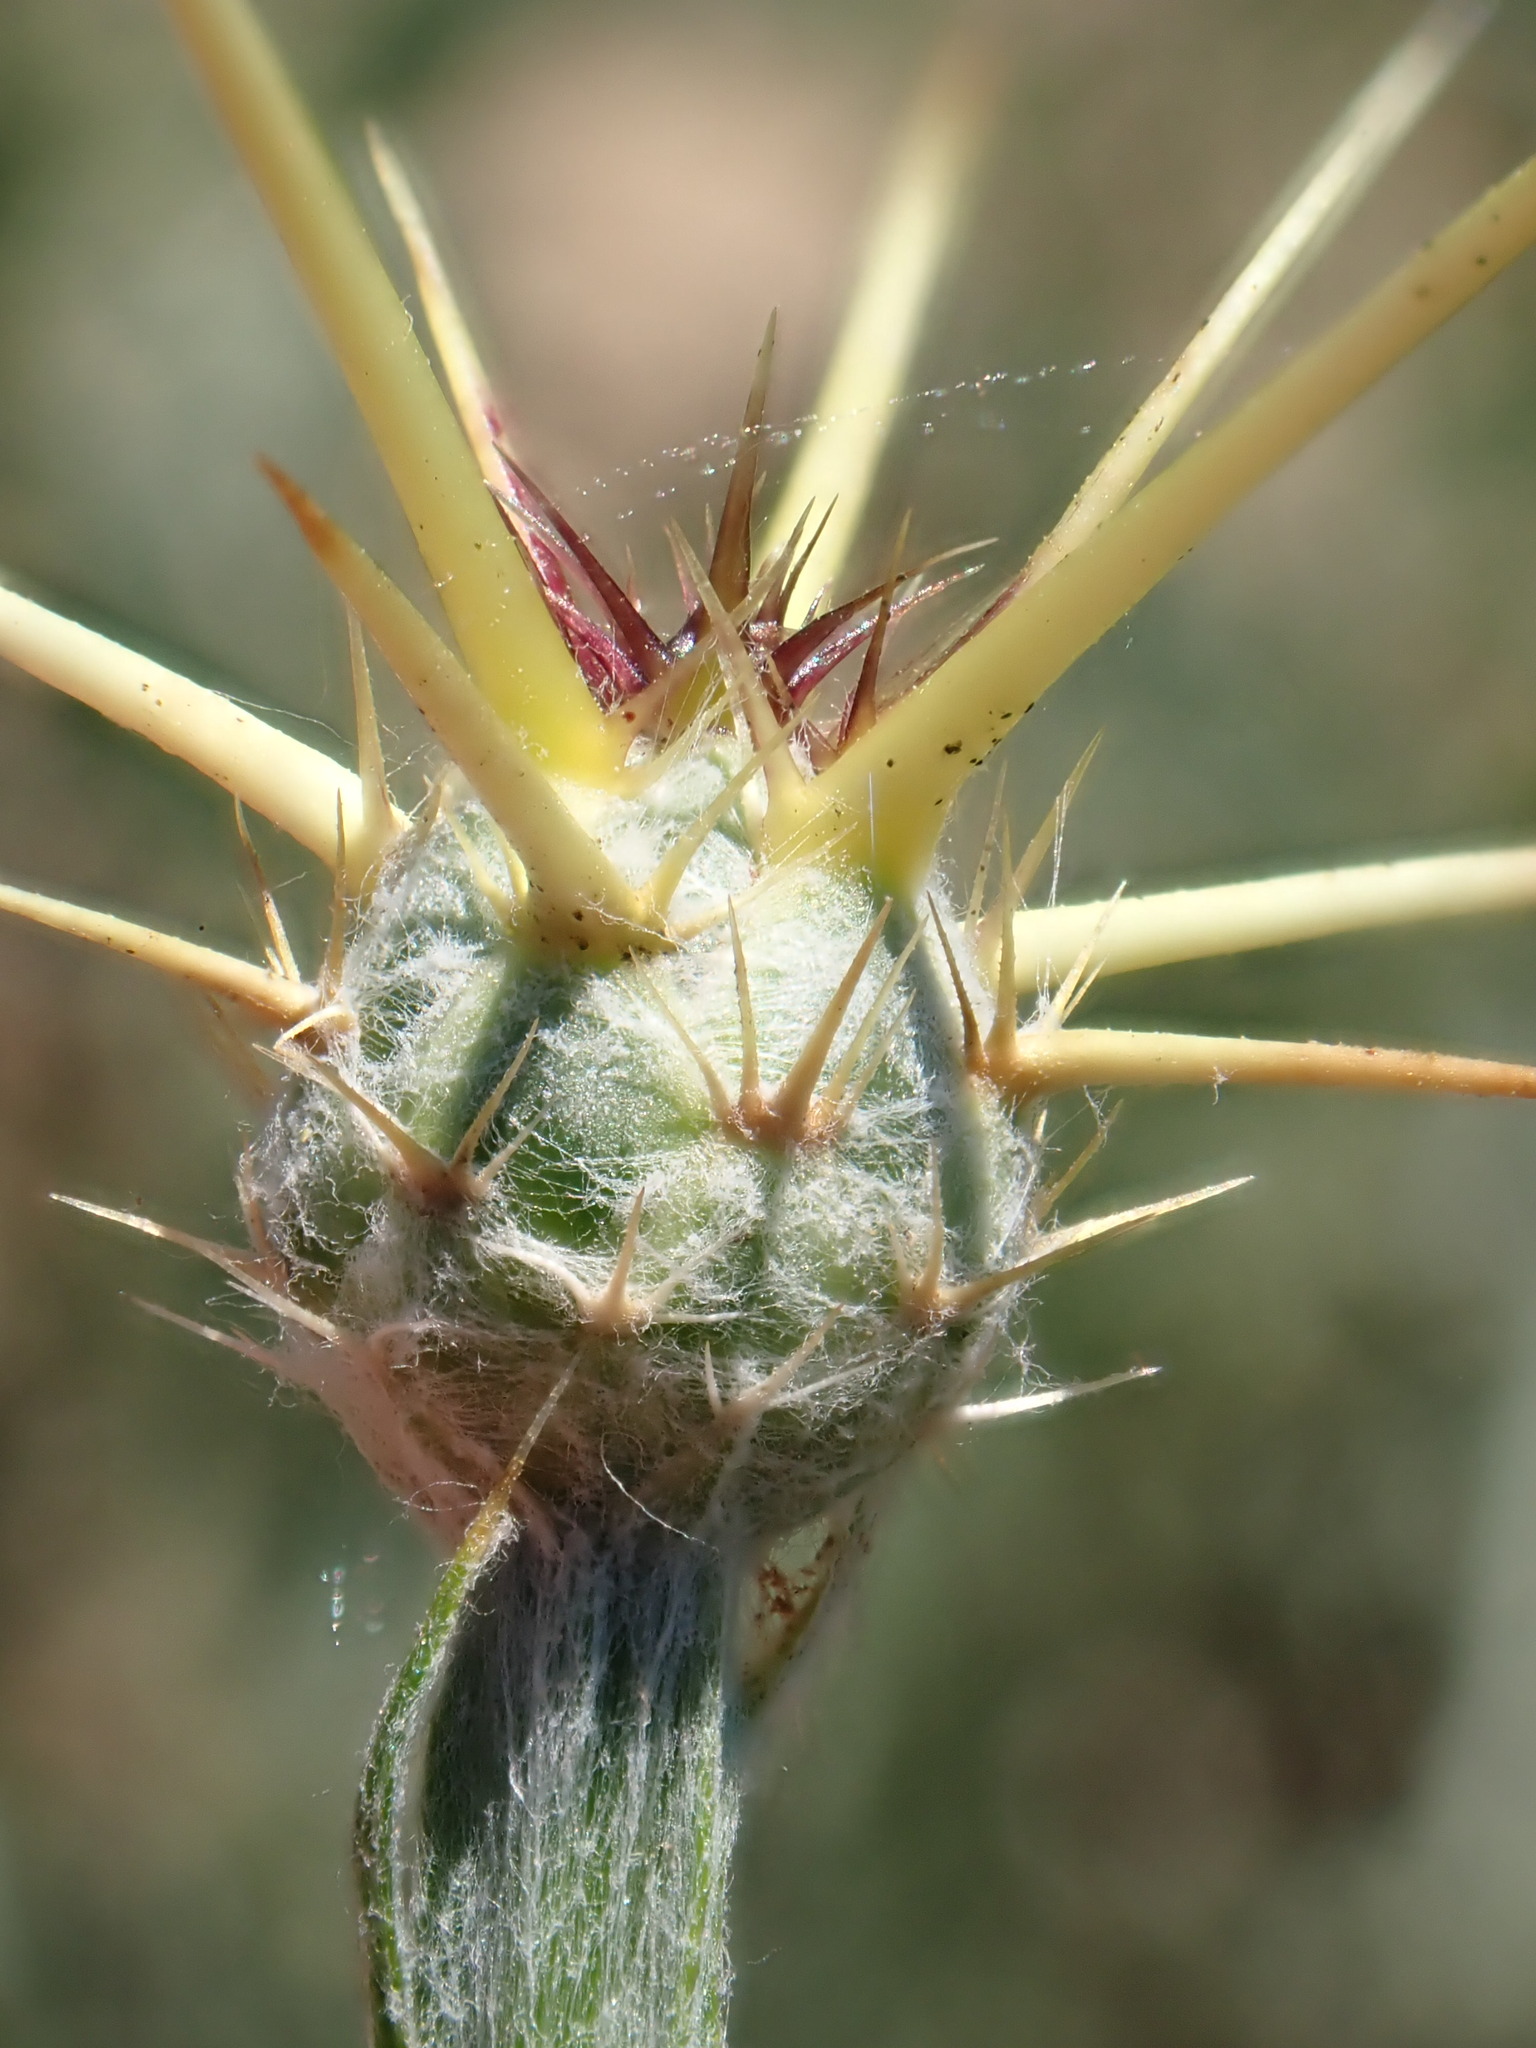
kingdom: Plantae
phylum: Tracheophyta
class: Magnoliopsida
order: Asterales
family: Asteraceae
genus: Centaurea
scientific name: Centaurea solstitialis
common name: Yellow star-thistle
